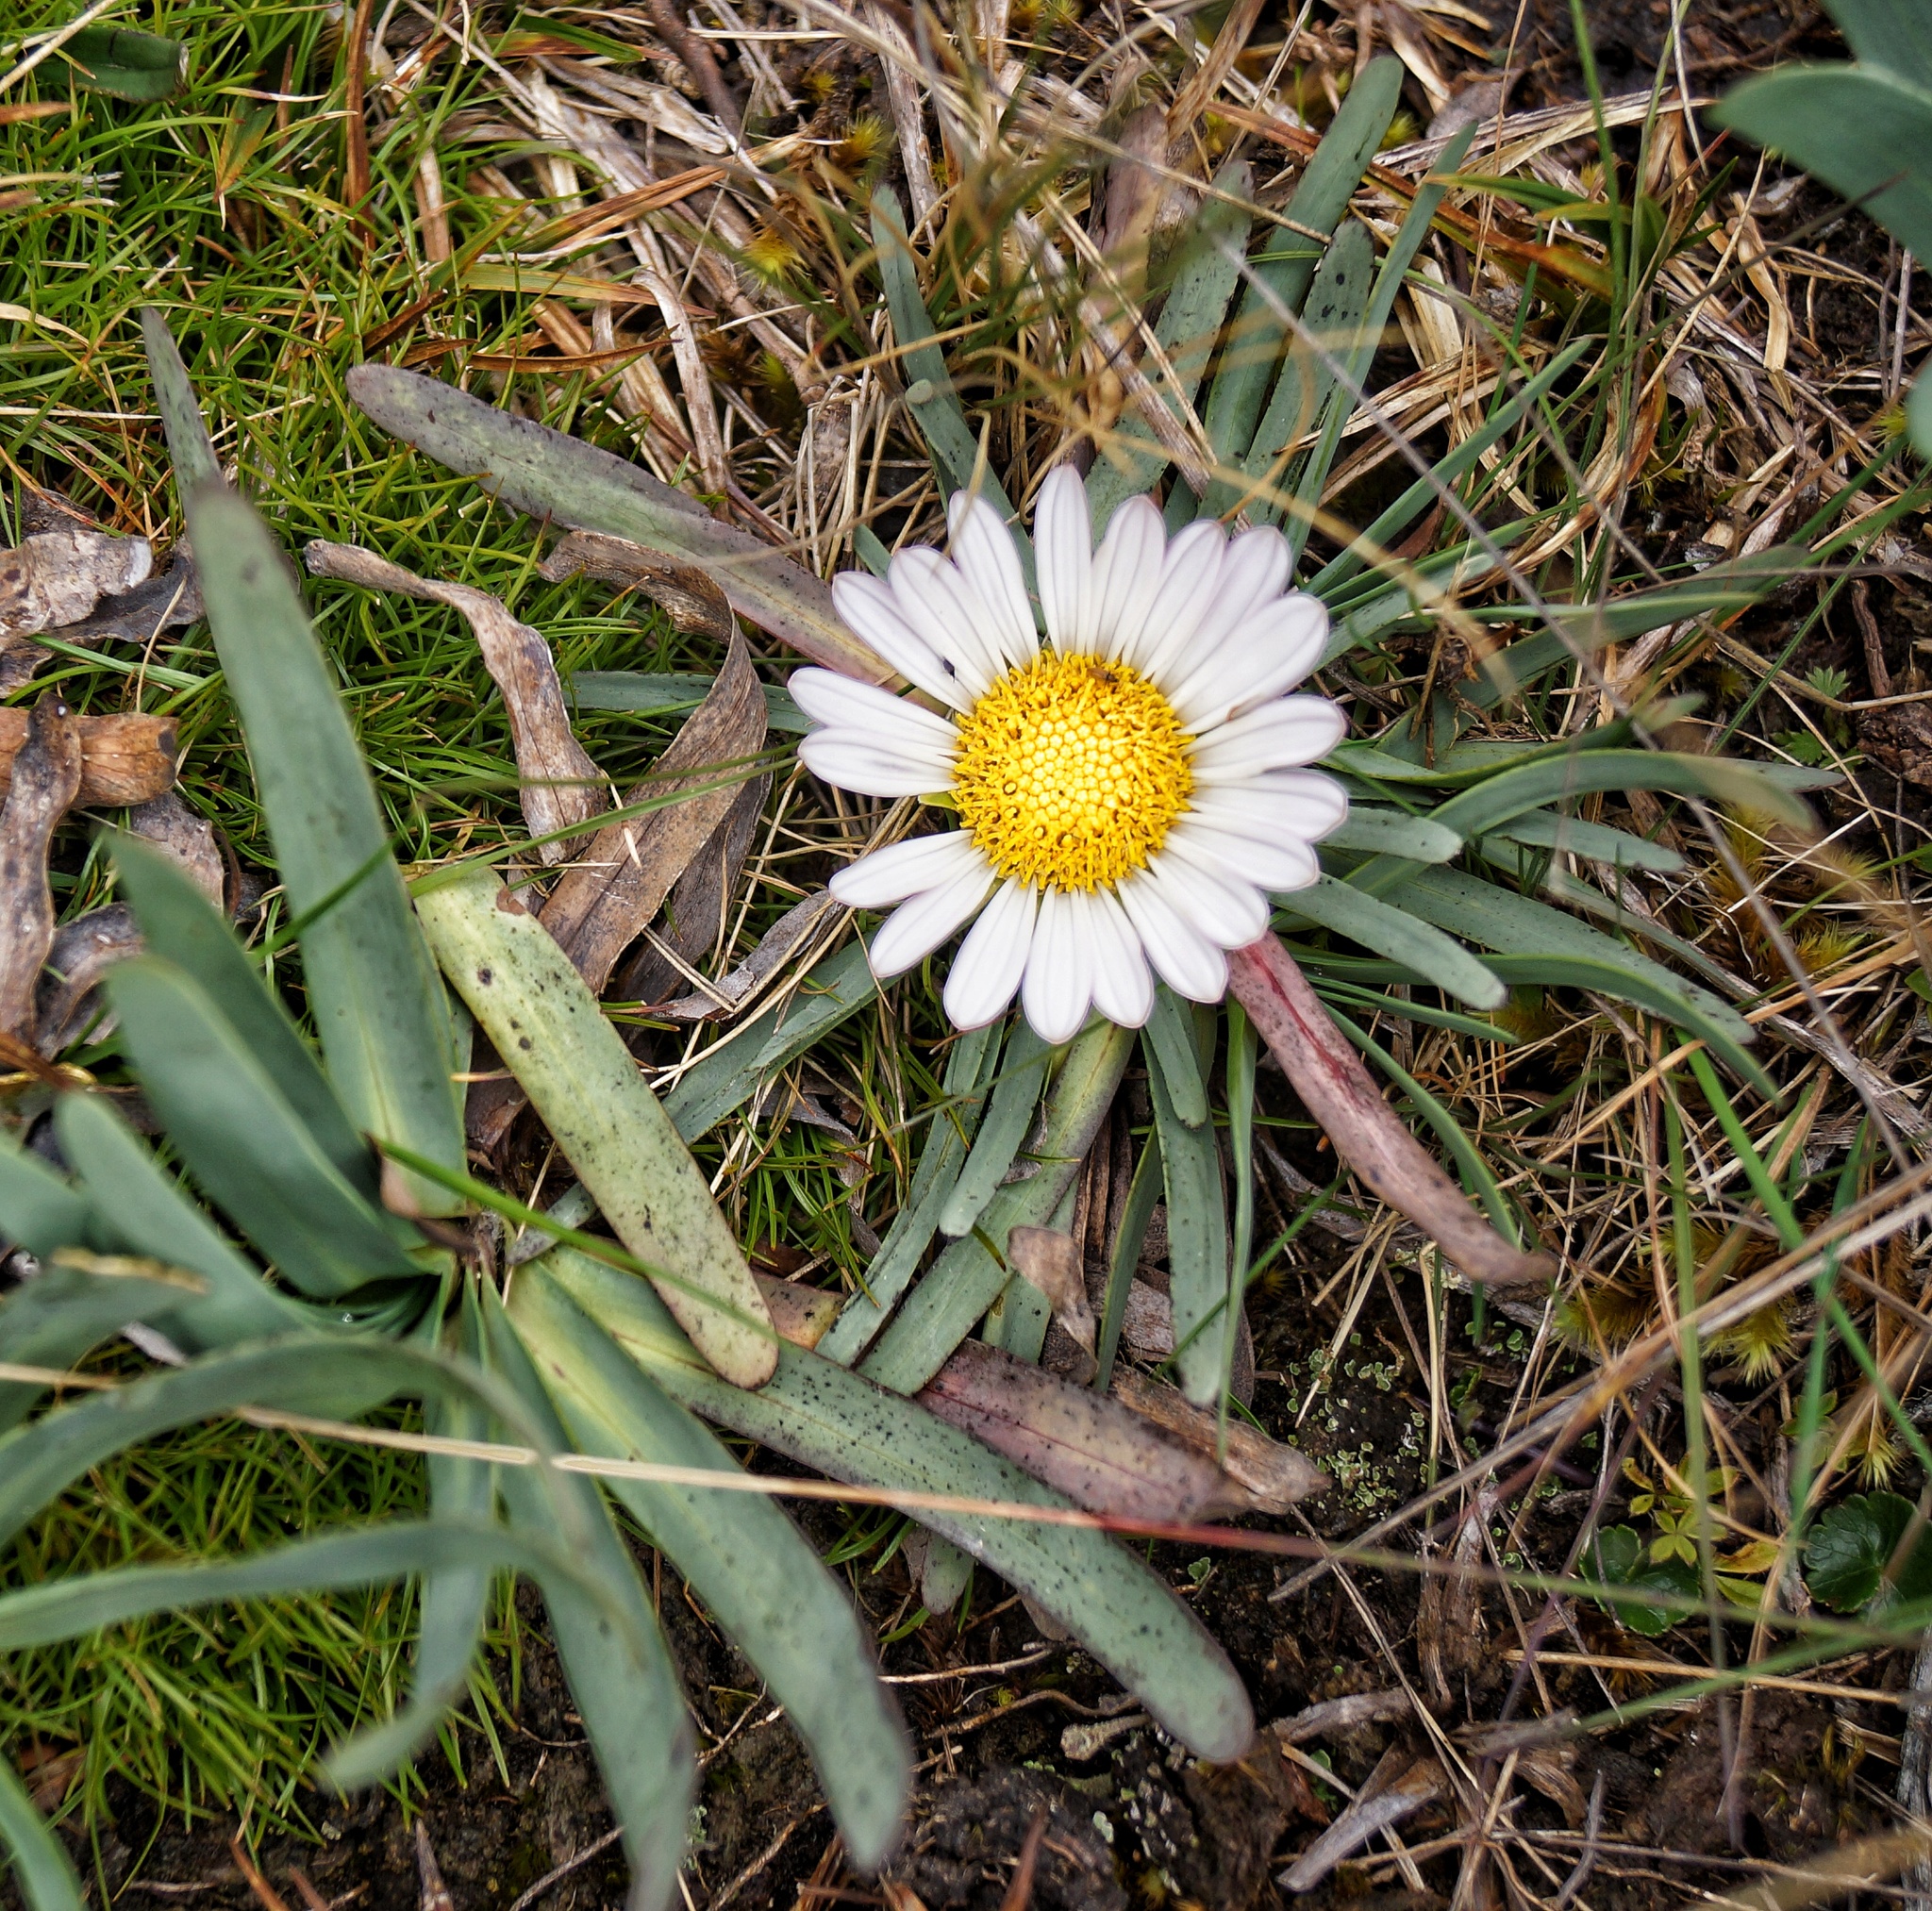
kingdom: Plantae
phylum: Tracheophyta
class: Magnoliopsida
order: Asterales
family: Asteraceae
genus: Rockhausenia
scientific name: Rockhausenia nubigena
